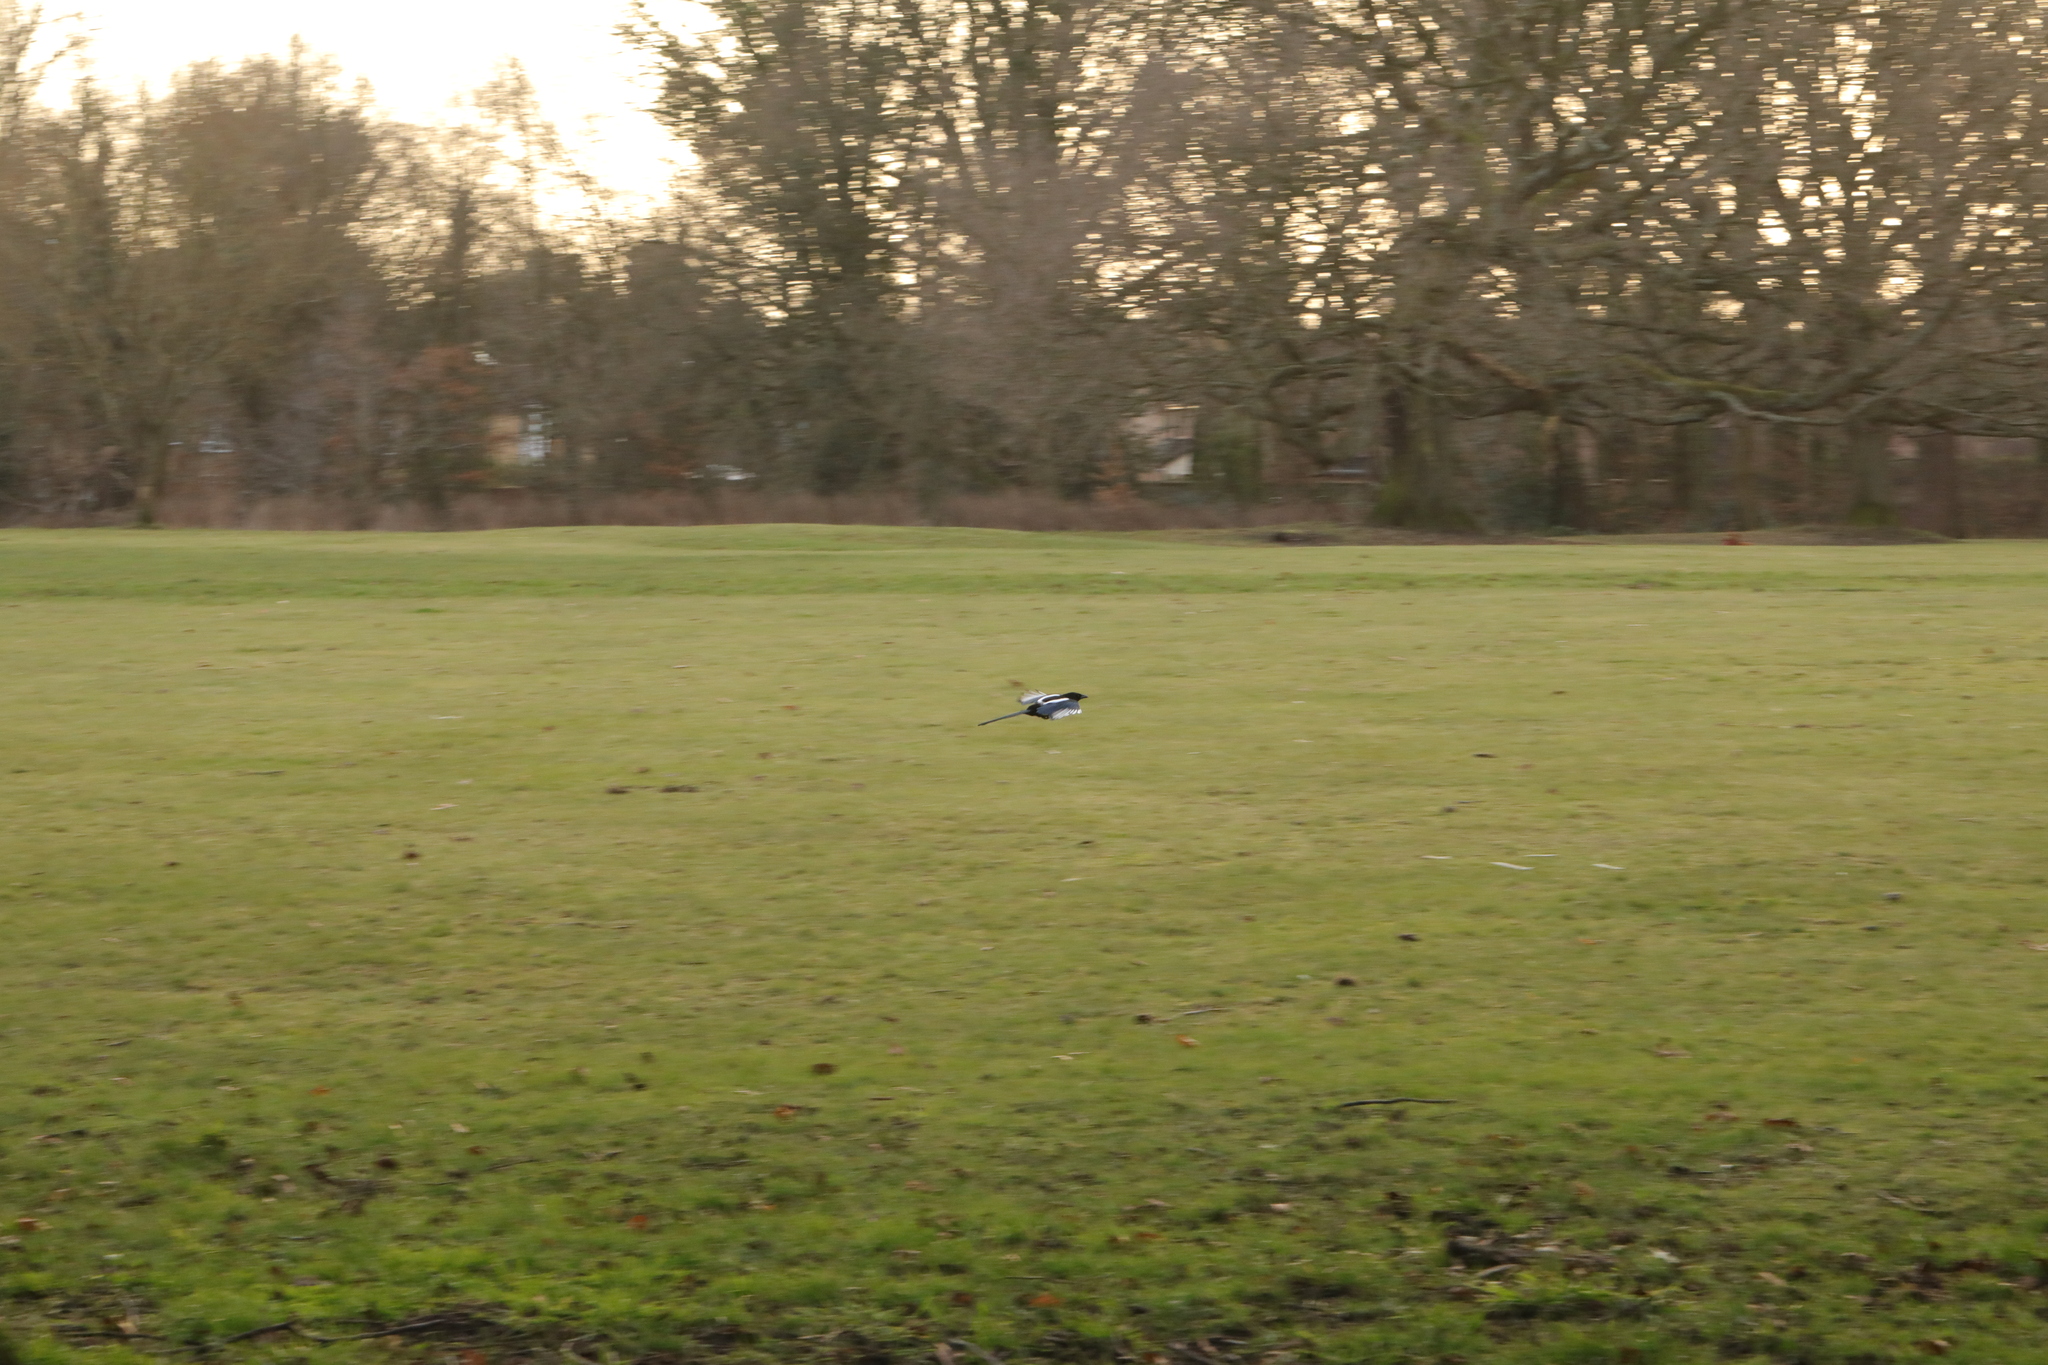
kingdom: Animalia
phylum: Chordata
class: Aves
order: Passeriformes
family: Corvidae
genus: Pica
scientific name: Pica pica
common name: Eurasian magpie
